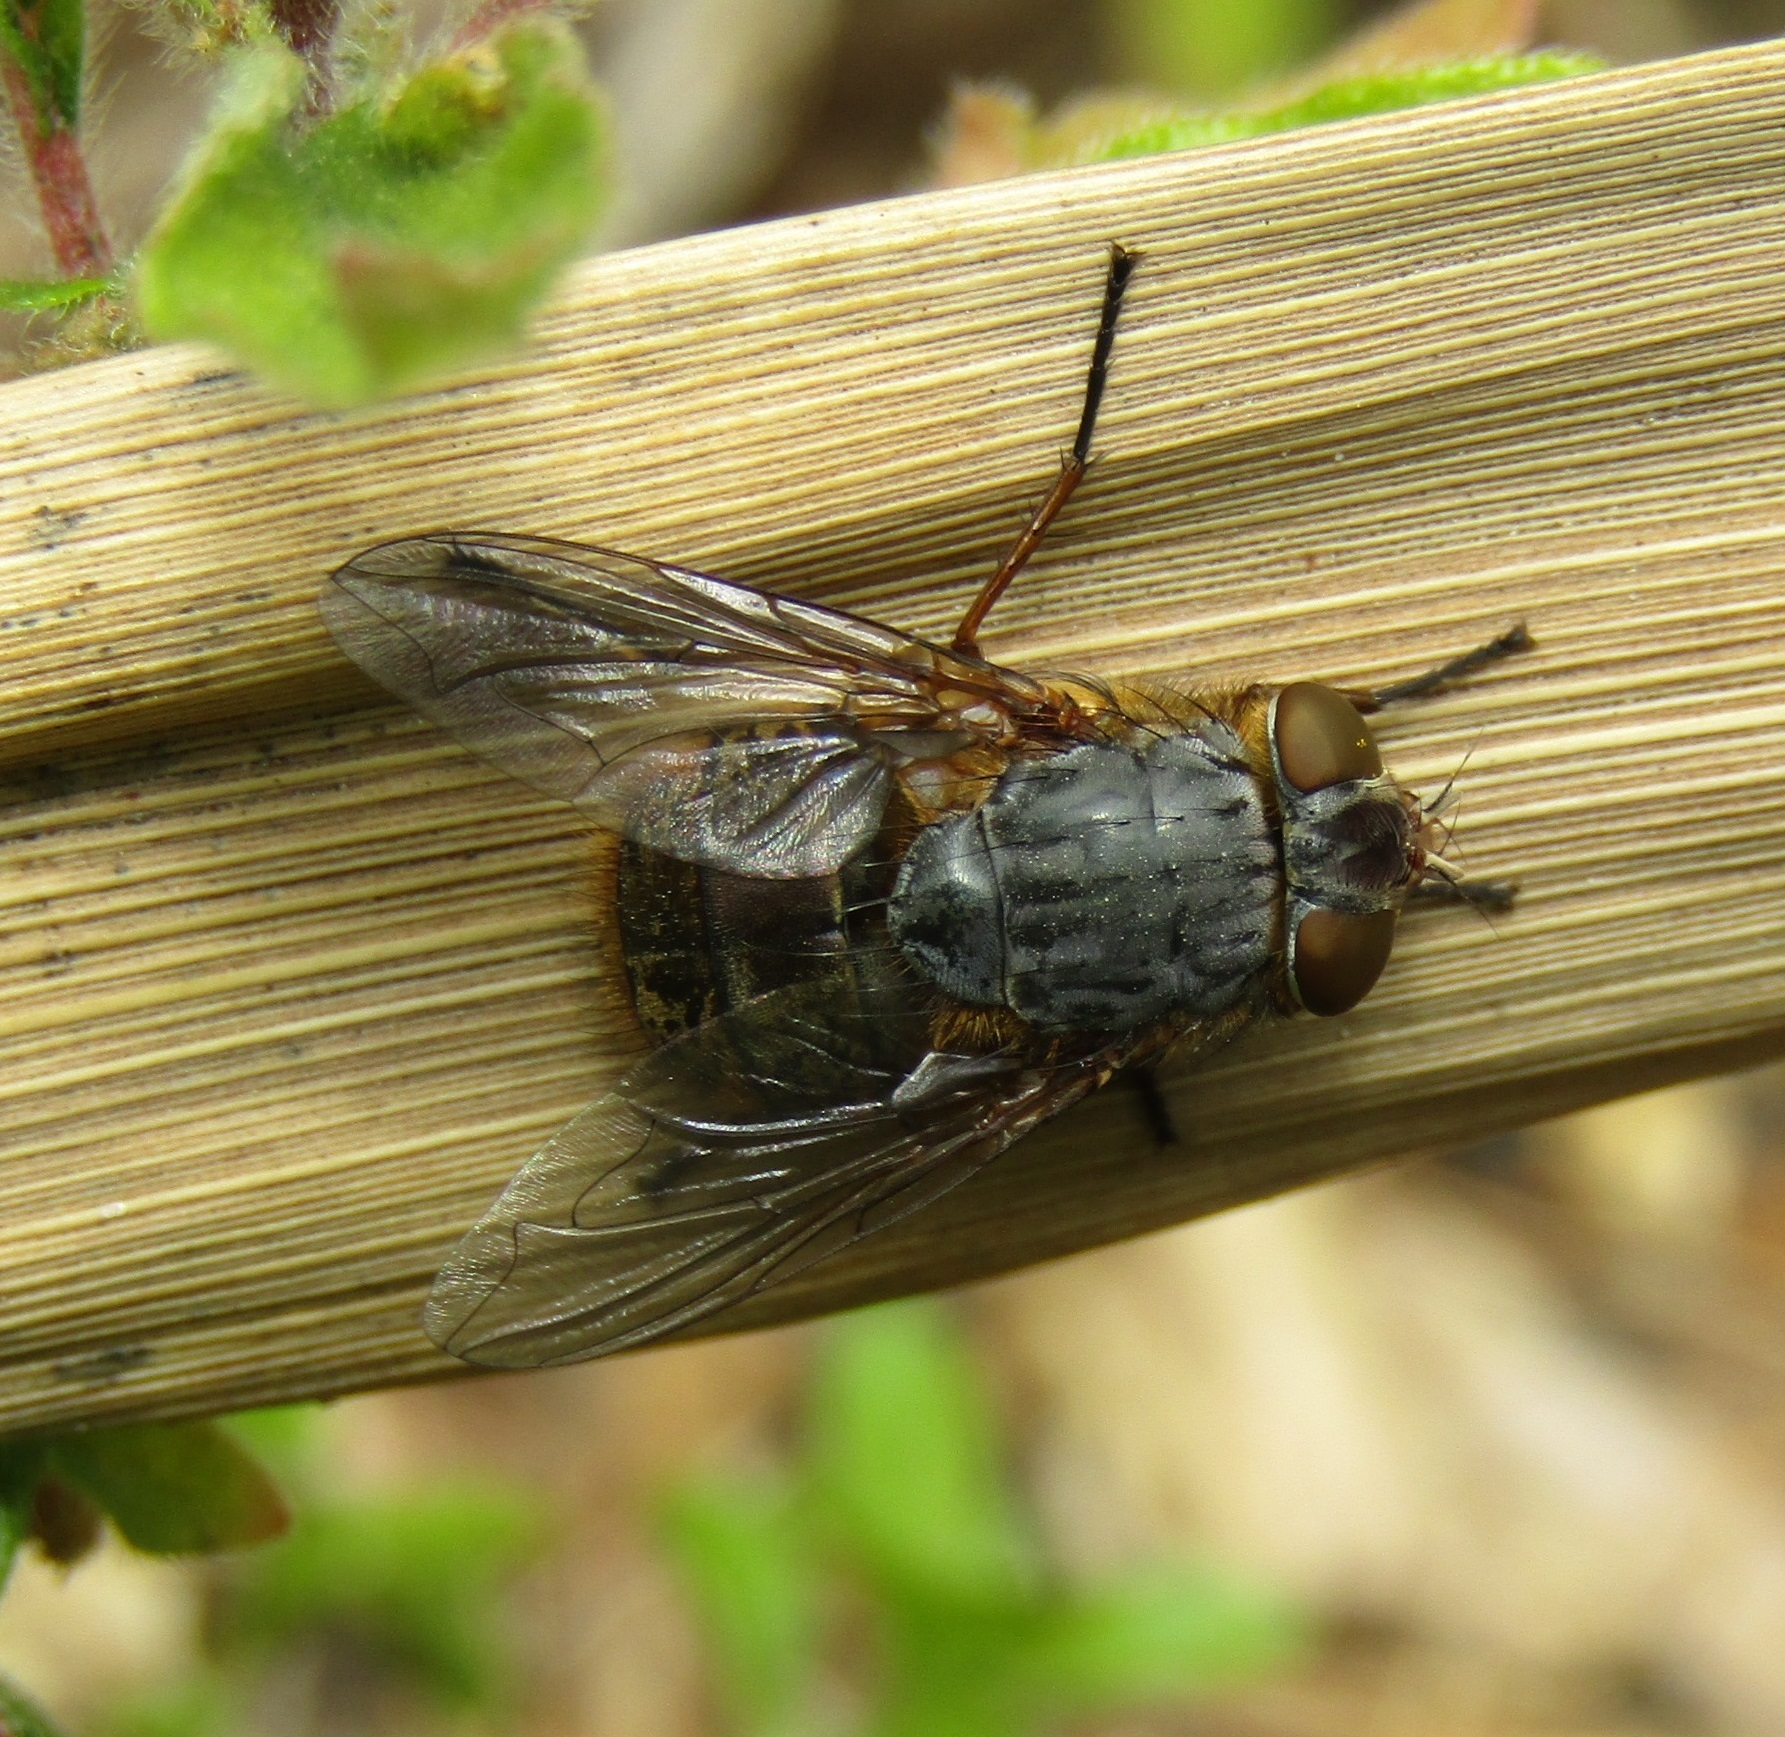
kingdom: Animalia
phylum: Arthropoda
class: Insecta
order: Diptera
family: Calliphoridae
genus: Calliphora
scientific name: Calliphora stygia
